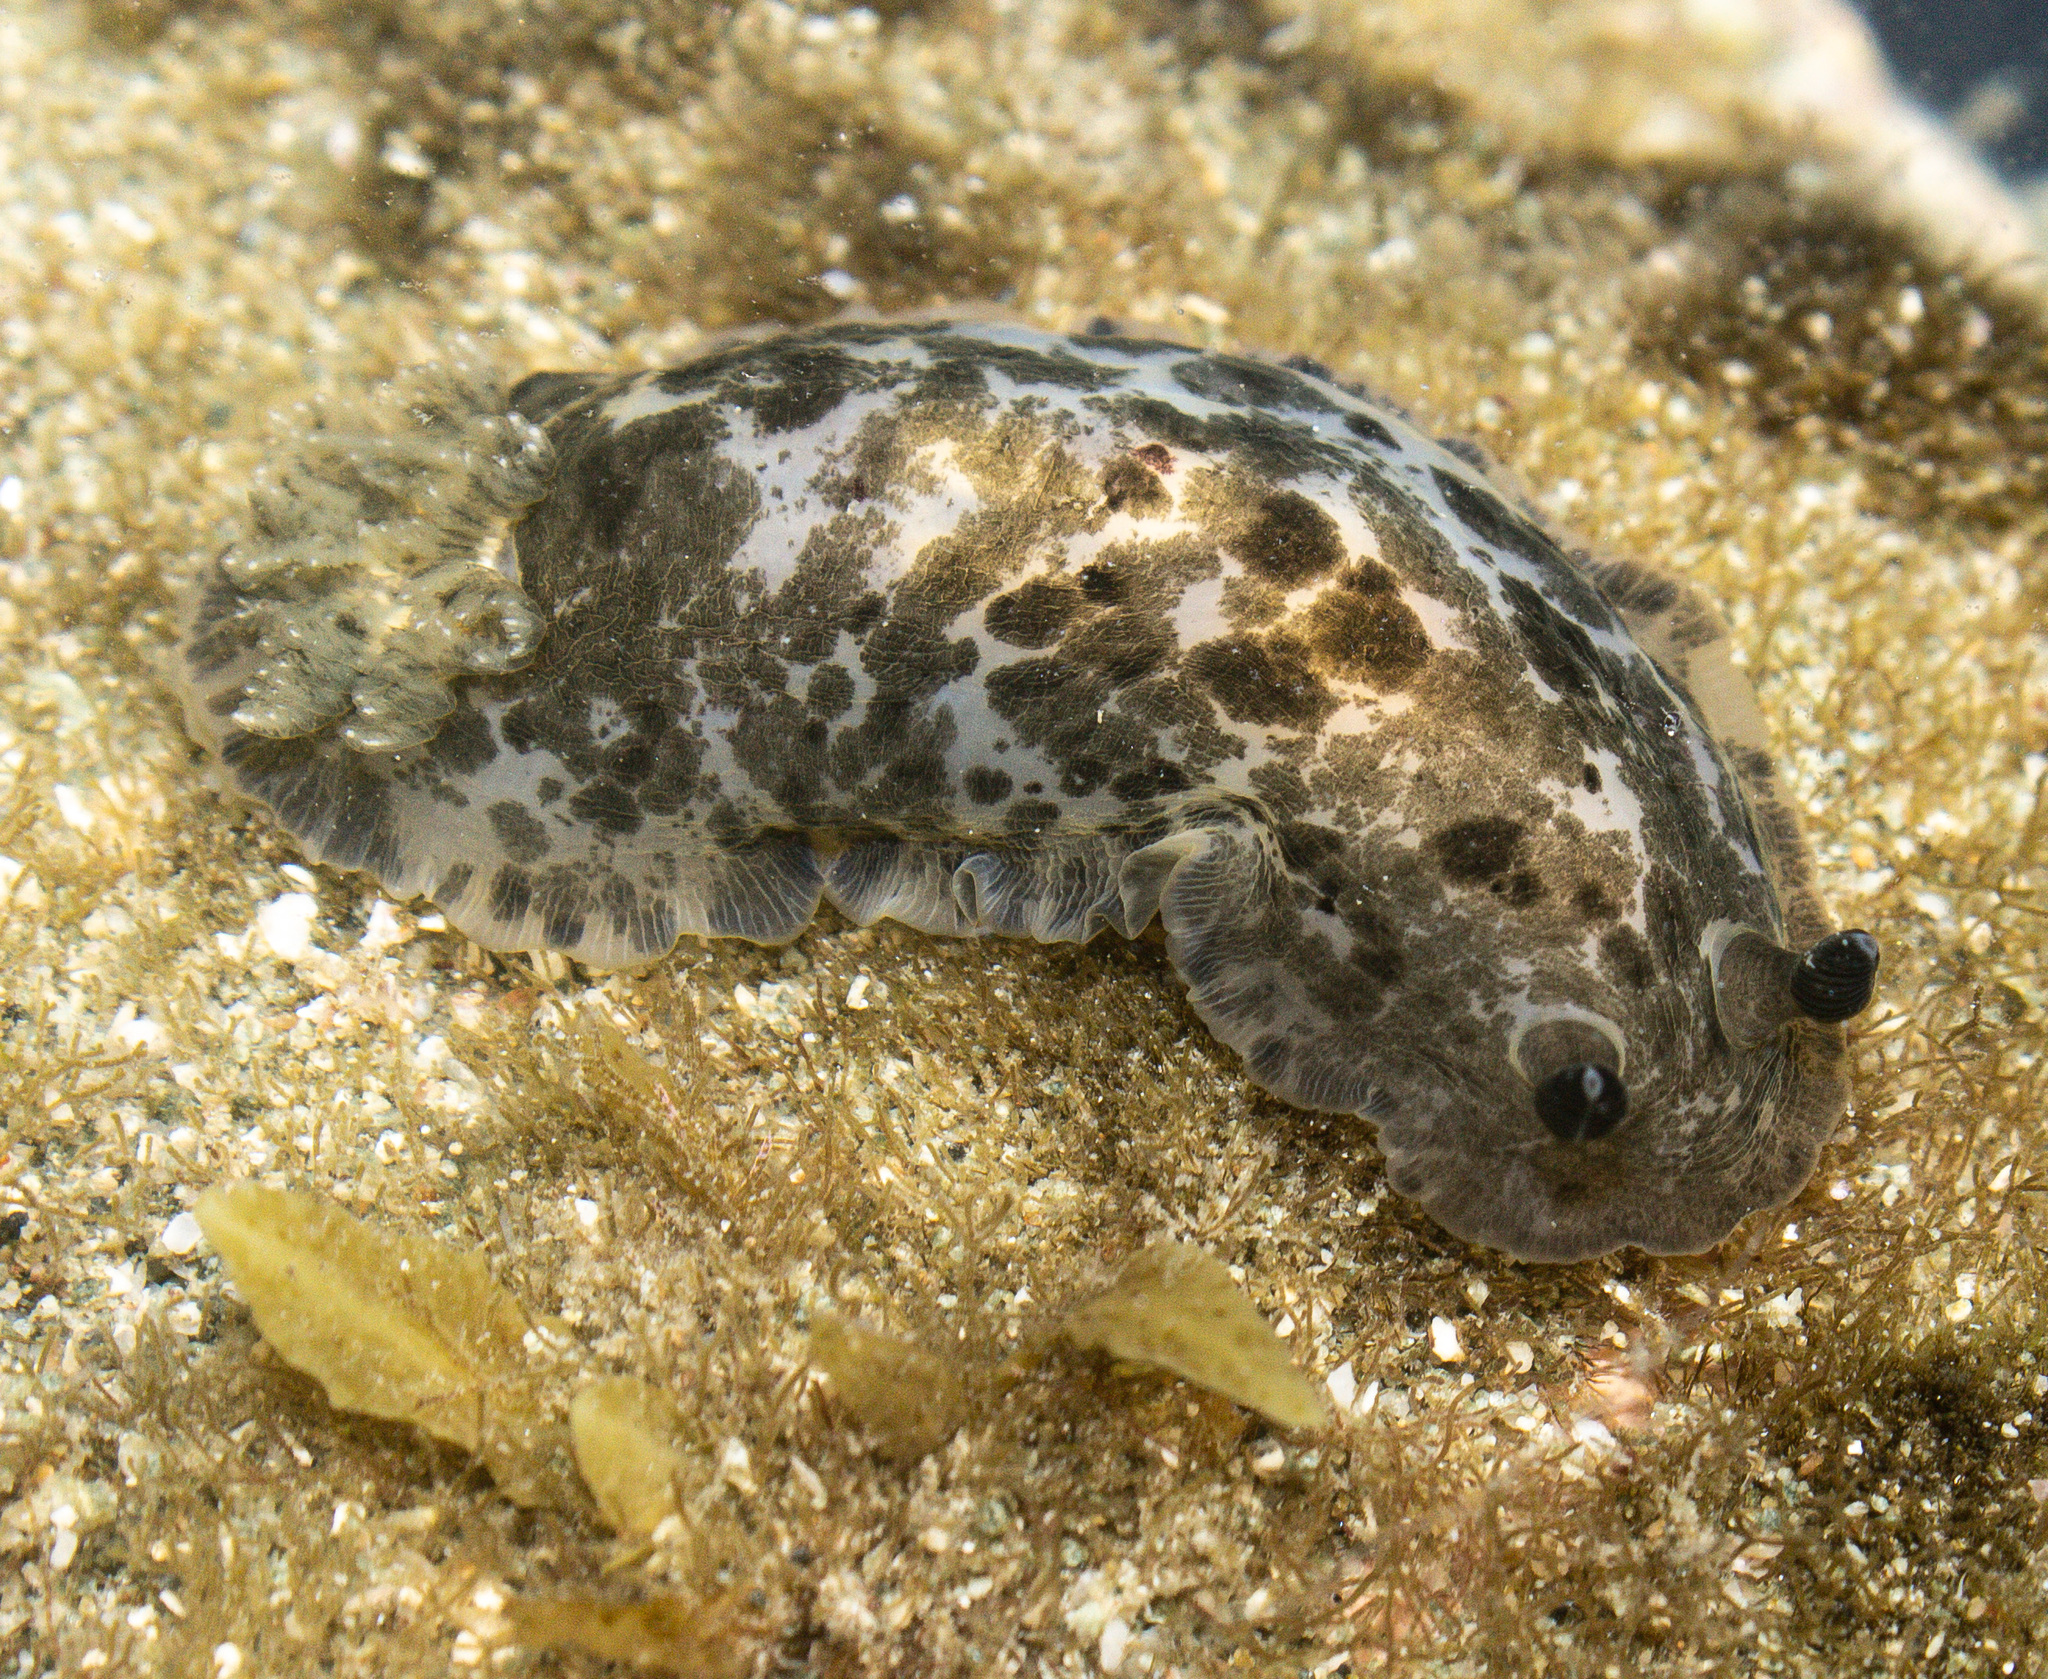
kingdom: Animalia
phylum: Mollusca
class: Gastropoda
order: Nudibranchia
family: Dendrodorididae
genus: Dendrodoris
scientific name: Dendrodoris krebsii
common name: Slimy doris
